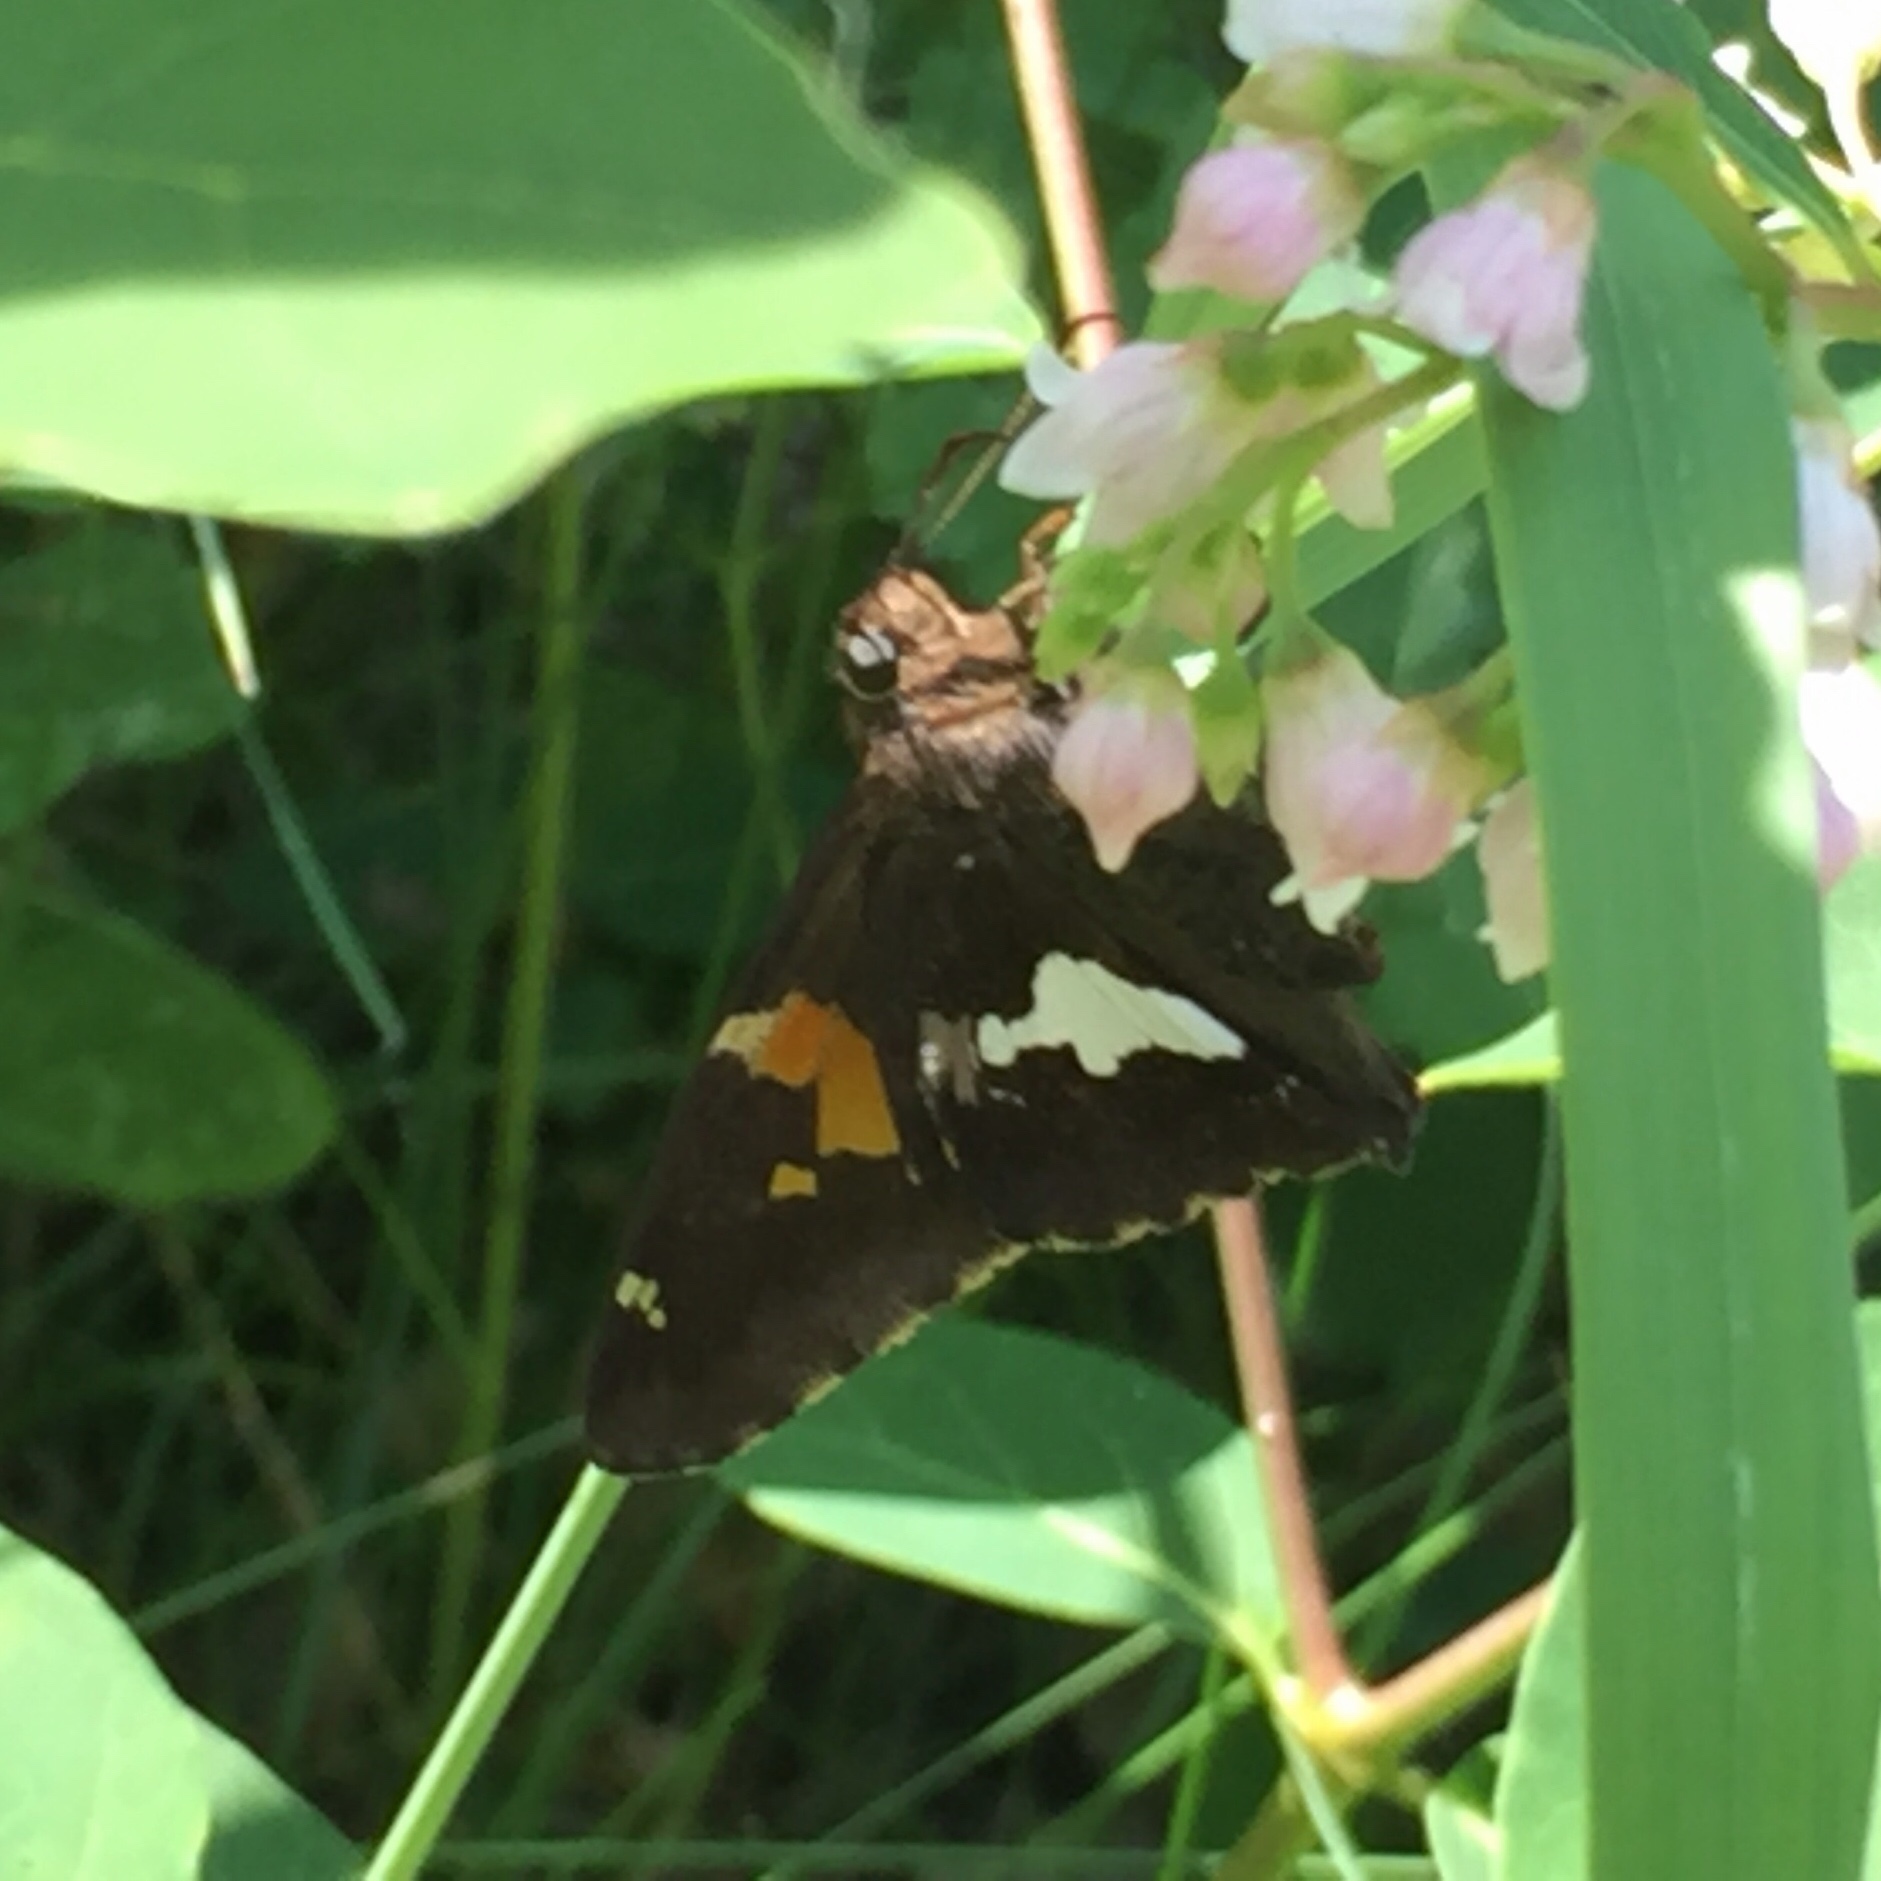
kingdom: Animalia
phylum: Arthropoda
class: Insecta
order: Lepidoptera
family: Hesperiidae
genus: Epargyreus
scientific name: Epargyreus clarus
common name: Silver-spotted skipper
